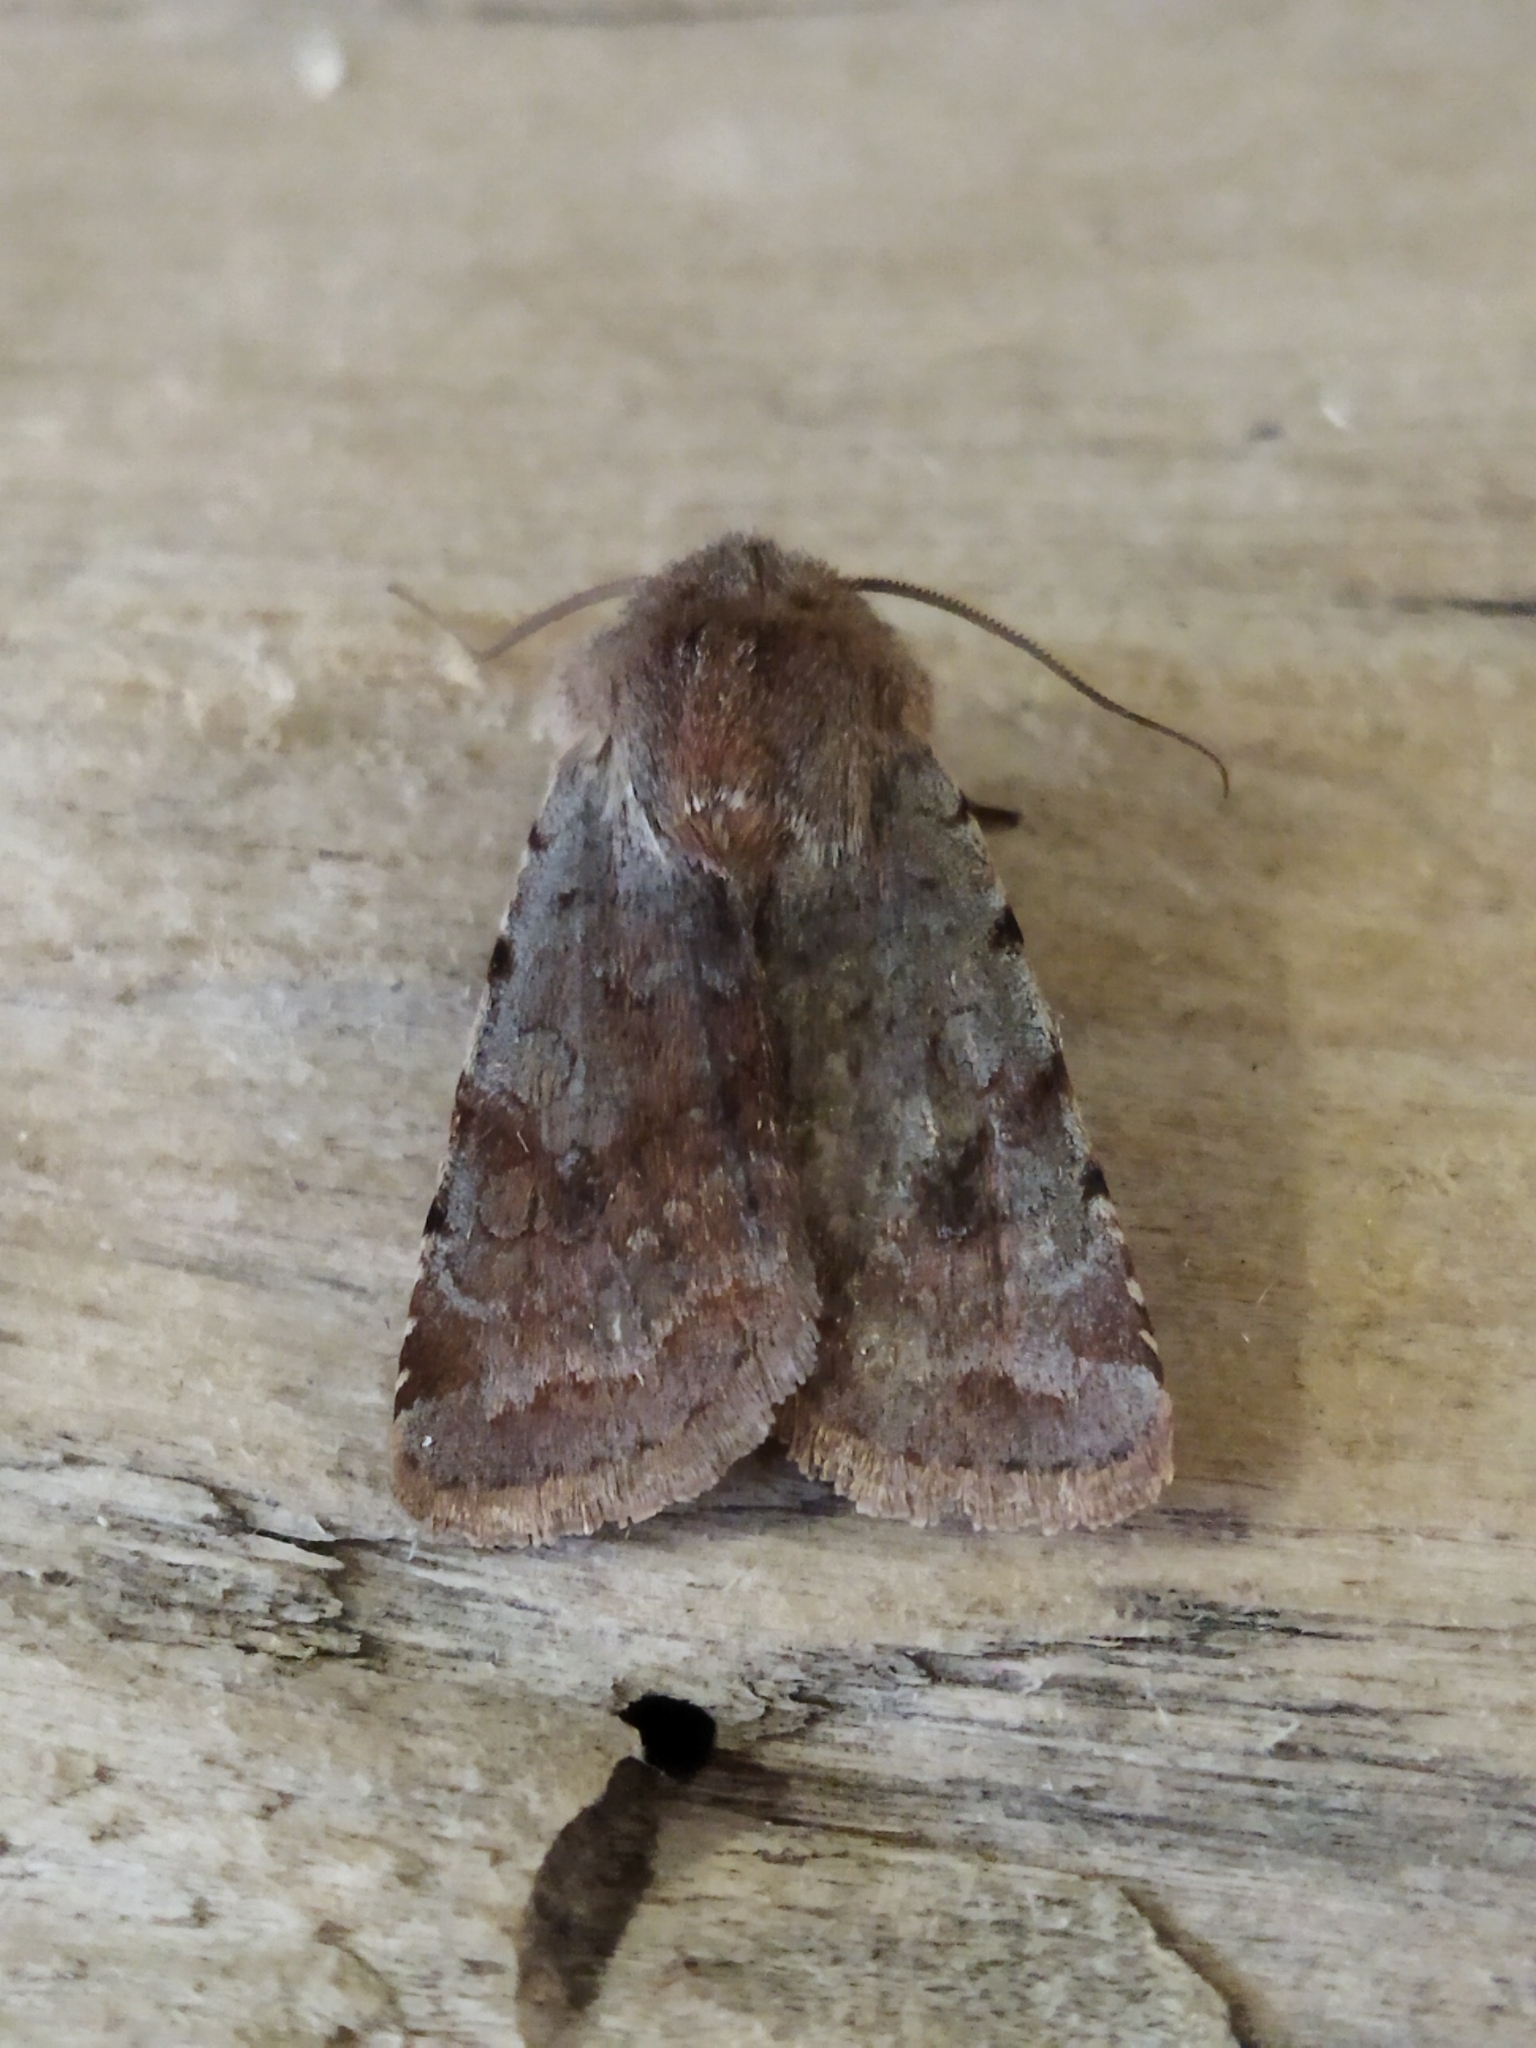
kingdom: Animalia
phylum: Arthropoda
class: Insecta
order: Lepidoptera
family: Noctuidae
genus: Cerastis
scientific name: Cerastis rubricosa
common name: Red chestnut
